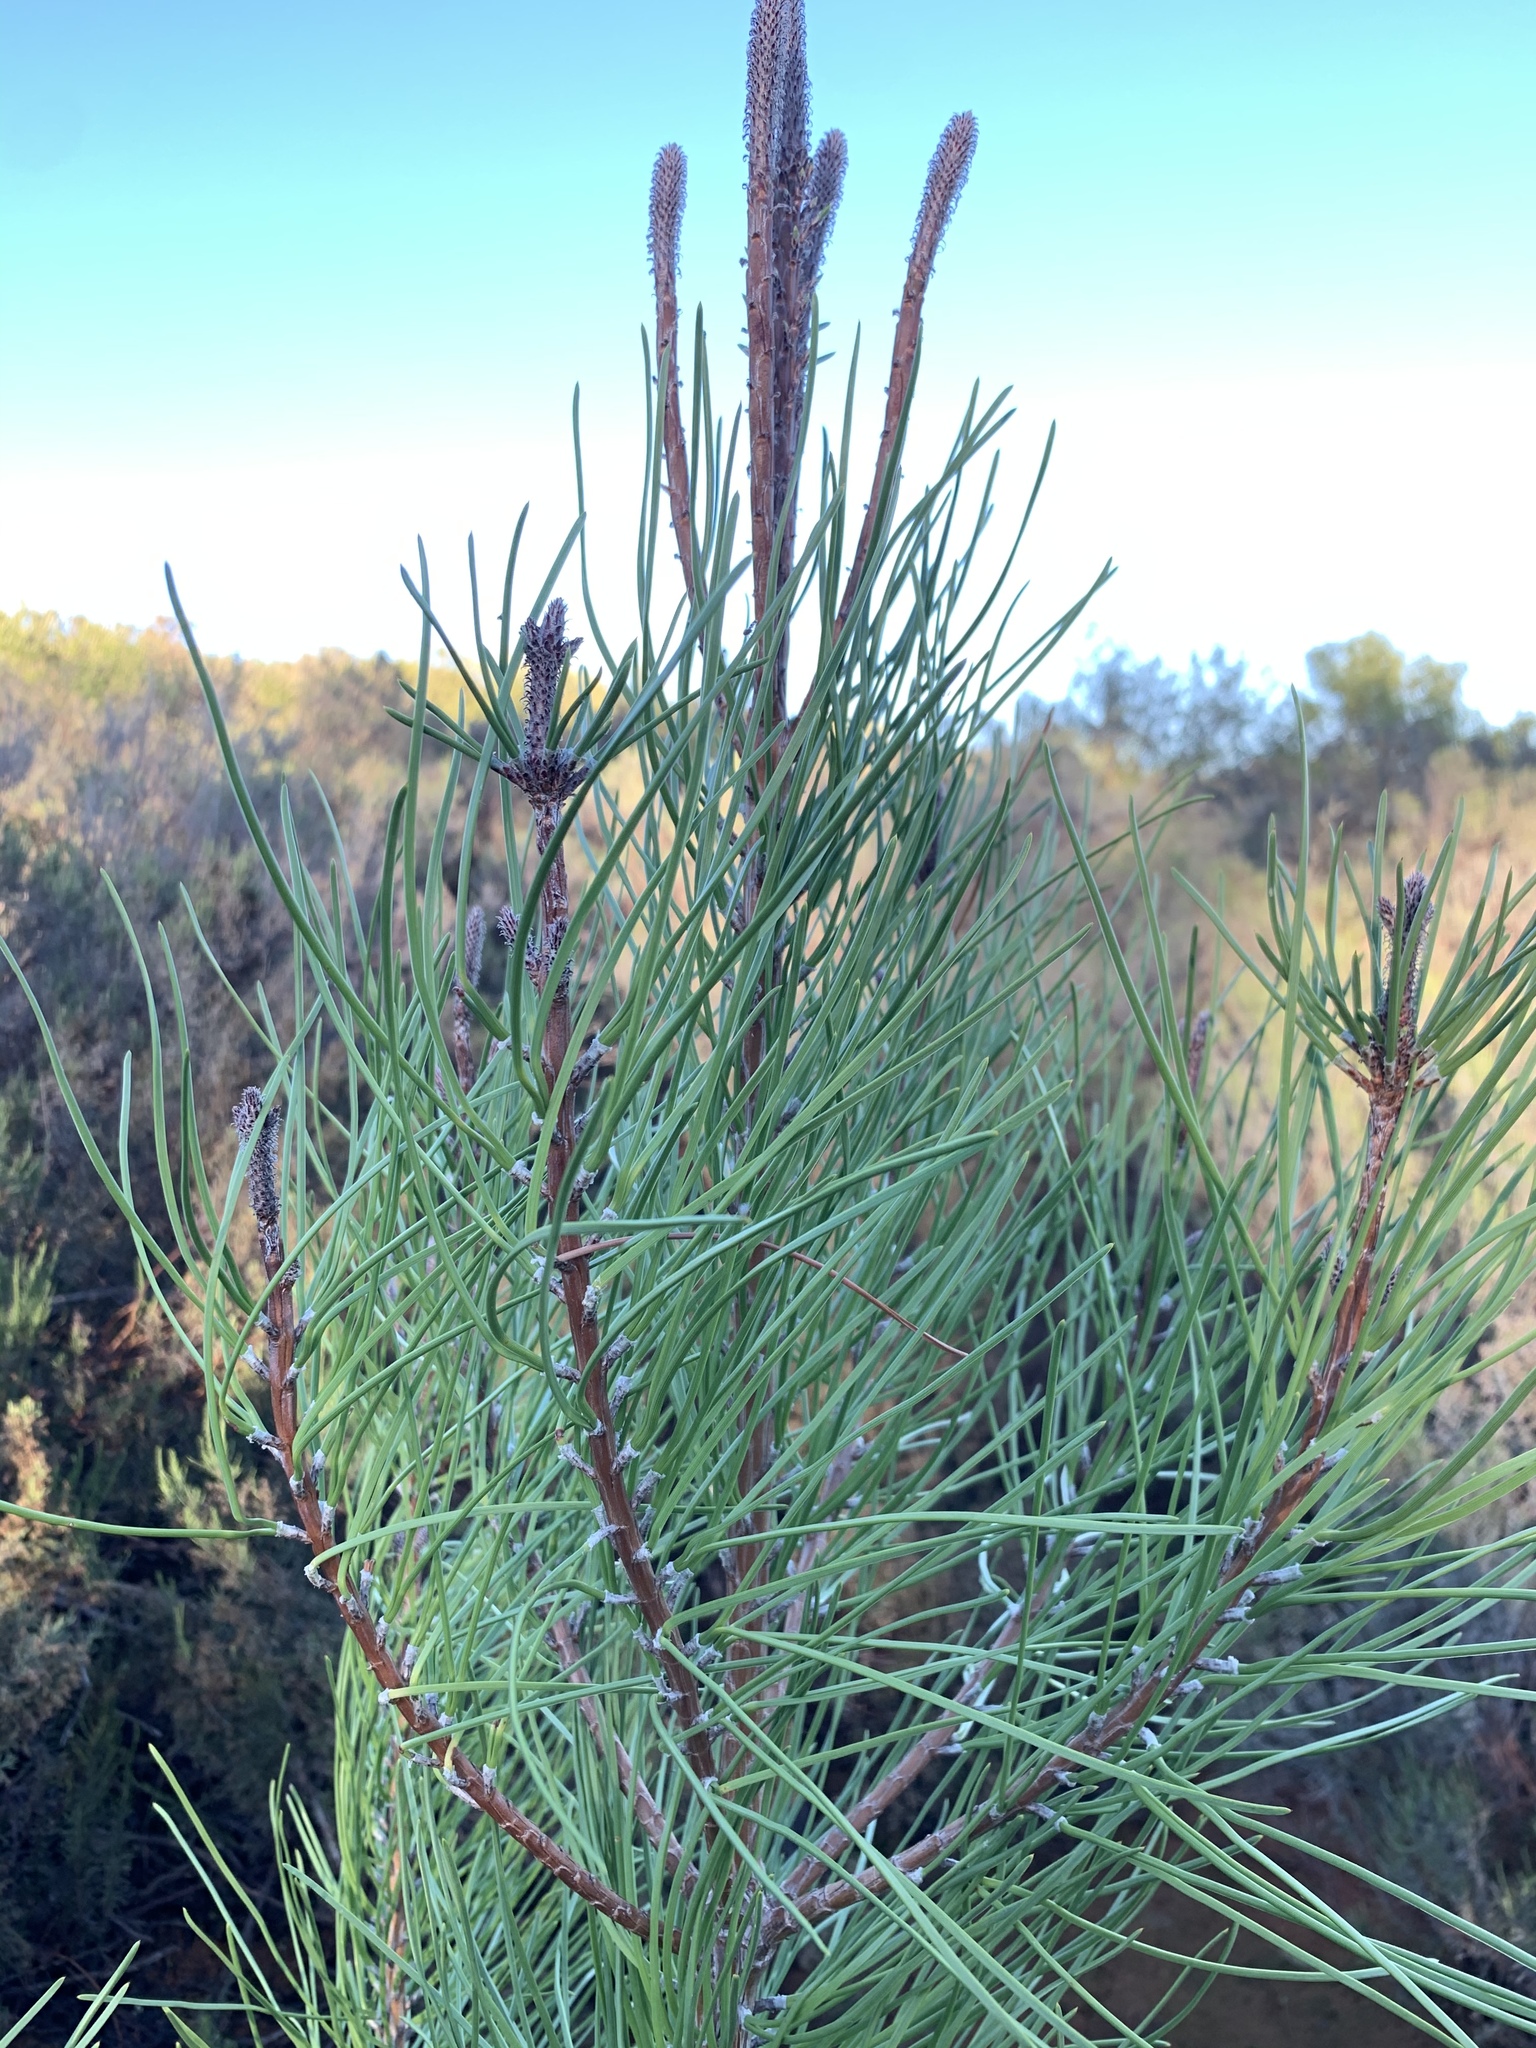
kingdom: Plantae
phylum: Tracheophyta
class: Pinopsida
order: Pinales
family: Pinaceae
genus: Pinus
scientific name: Pinus pinaster
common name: Maritime pine
